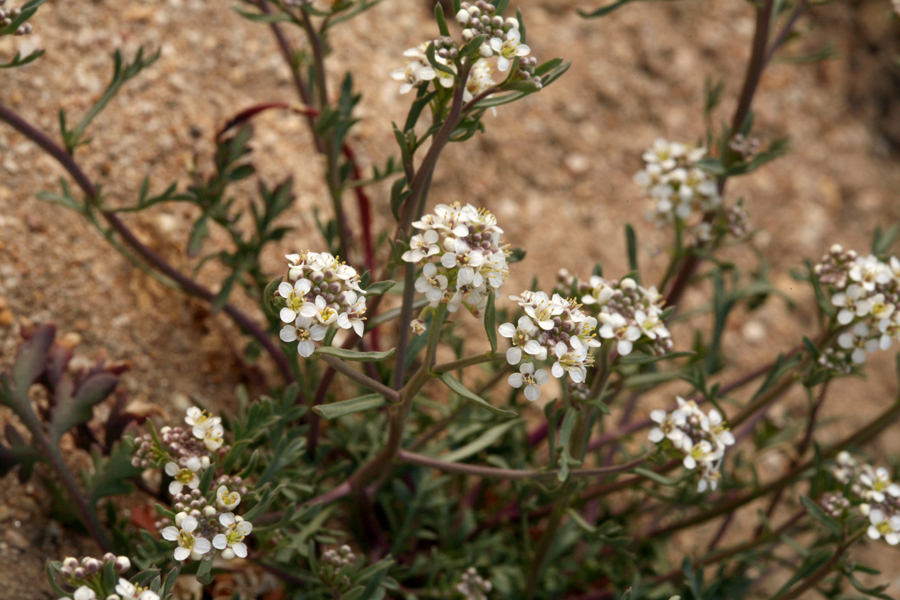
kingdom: Plantae
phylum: Tracheophyta
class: Magnoliopsida
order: Brassicales
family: Brassicaceae
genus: Lepidium
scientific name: Lepidium montanum
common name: Mountain pepperplant
